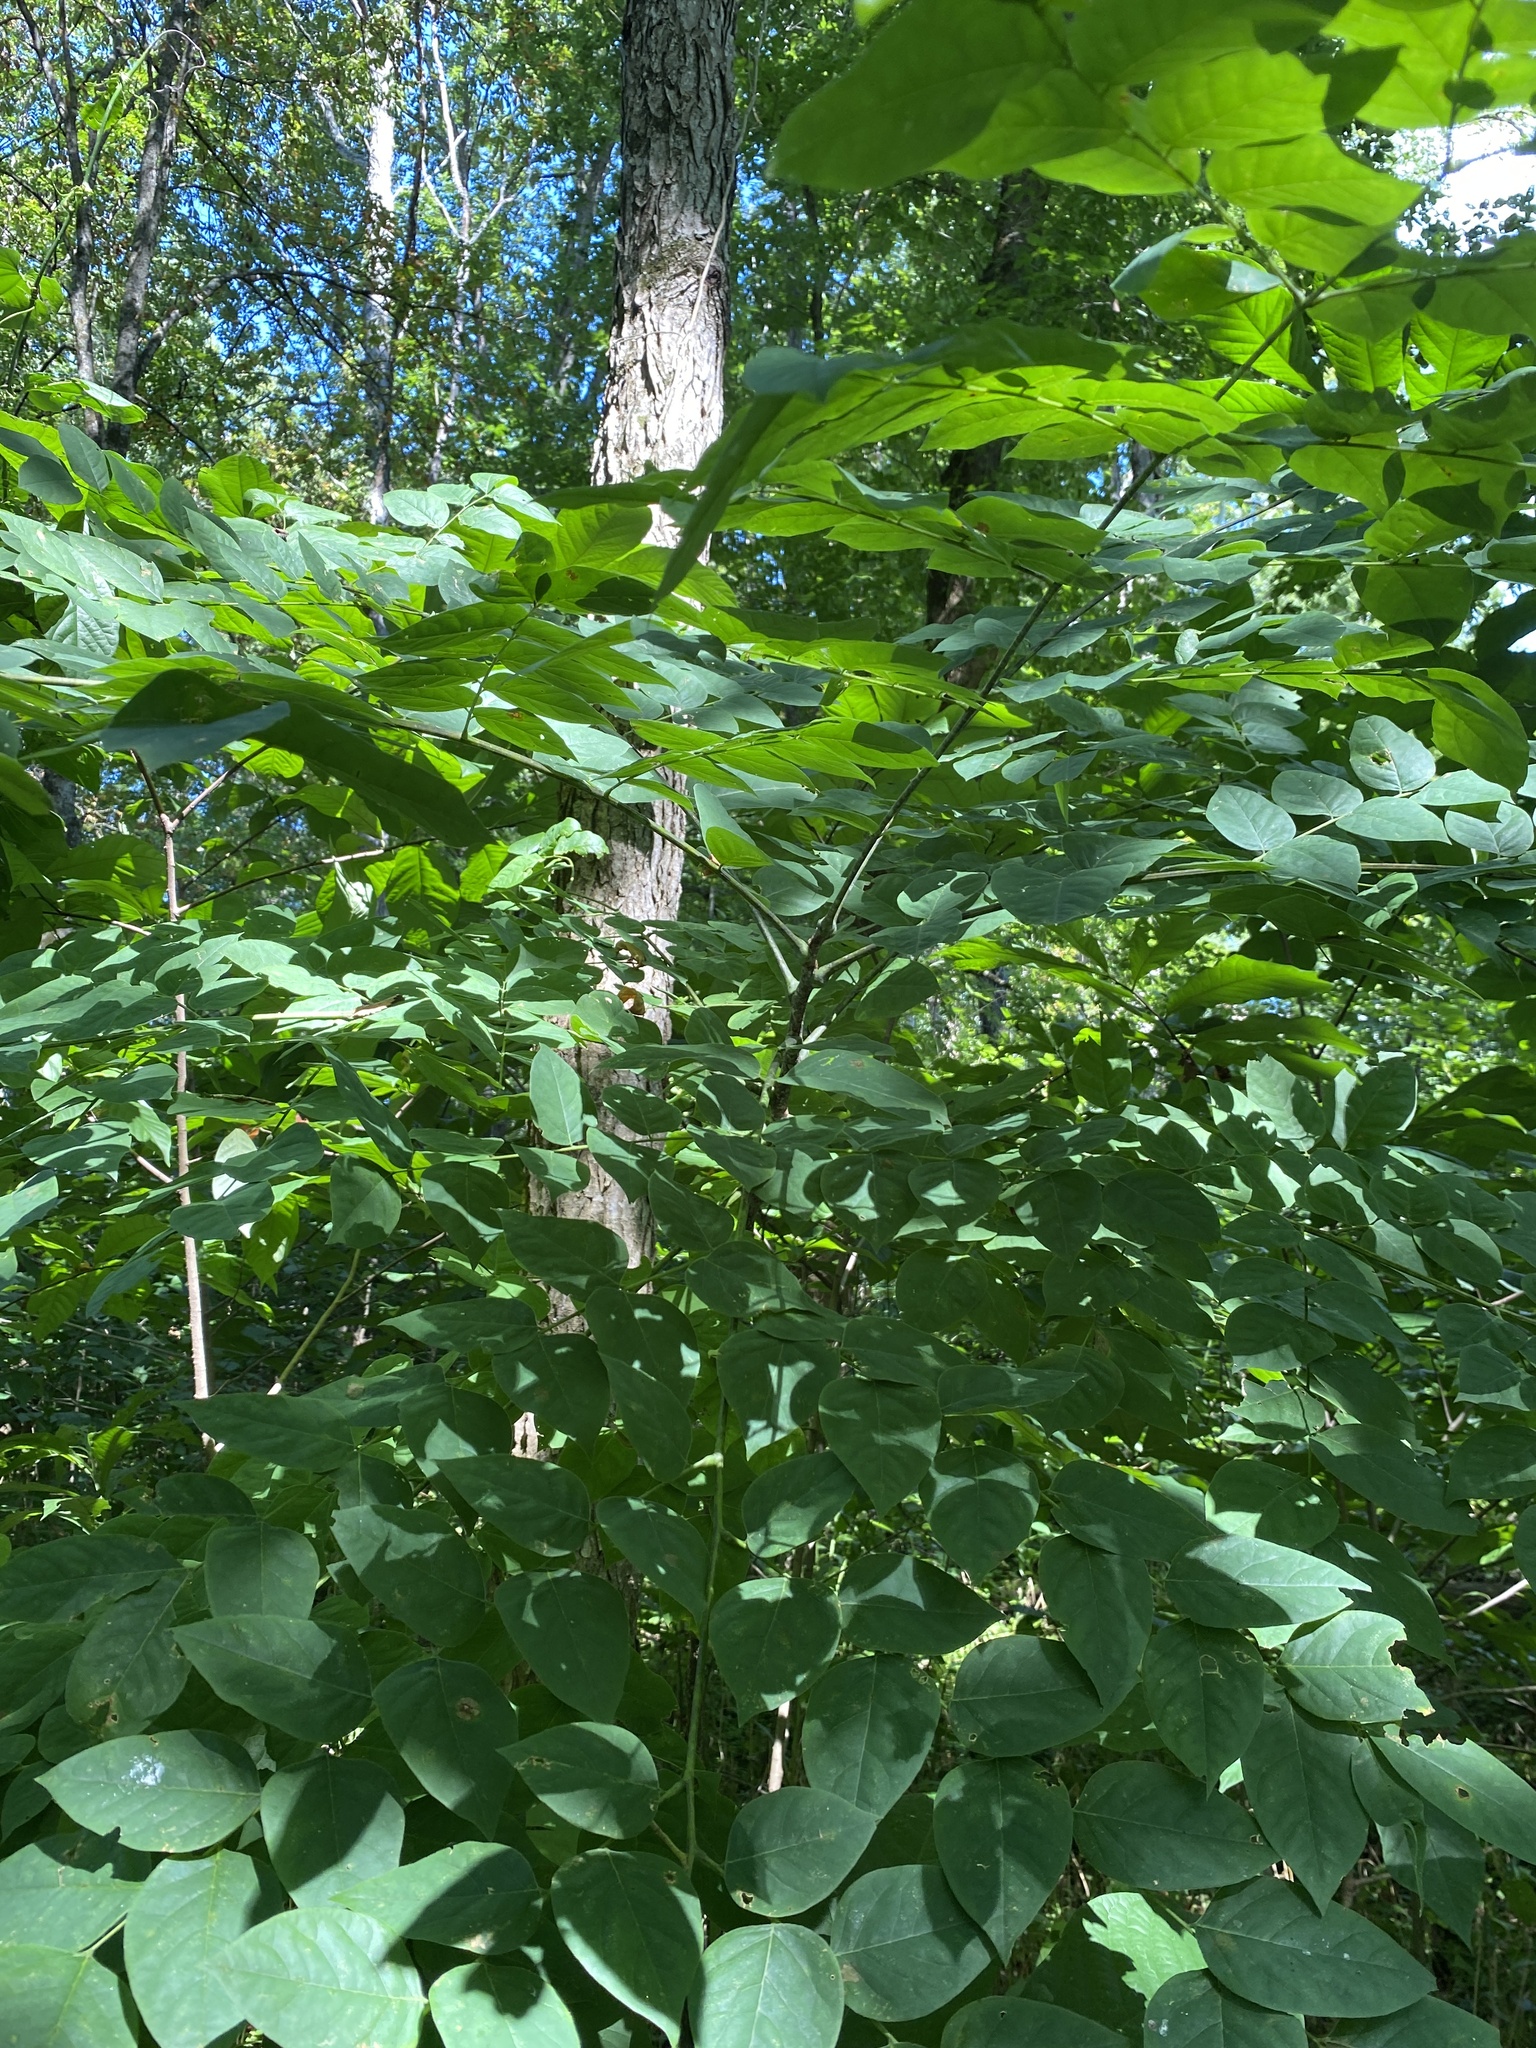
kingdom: Plantae
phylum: Tracheophyta
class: Magnoliopsida
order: Fabales
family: Fabaceae
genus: Gymnocladus
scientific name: Gymnocladus dioicus
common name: Kentucky coffee-tree
